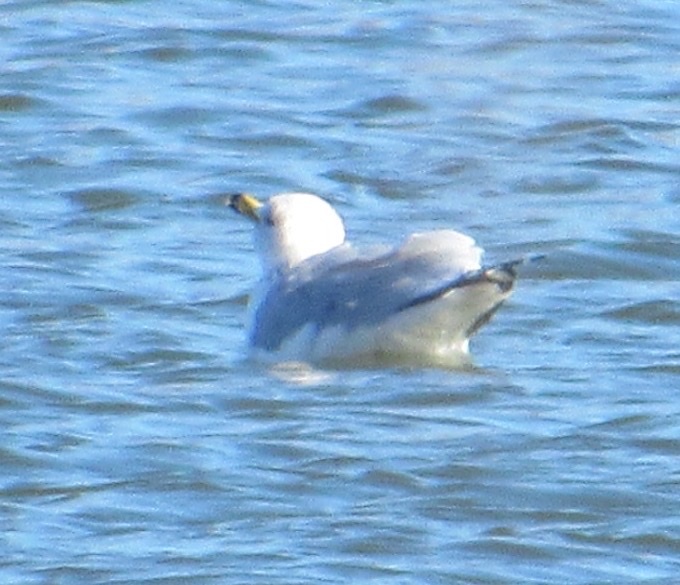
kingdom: Animalia
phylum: Chordata
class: Aves
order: Charadriiformes
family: Laridae
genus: Larus
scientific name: Larus delawarensis
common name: Ring-billed gull
